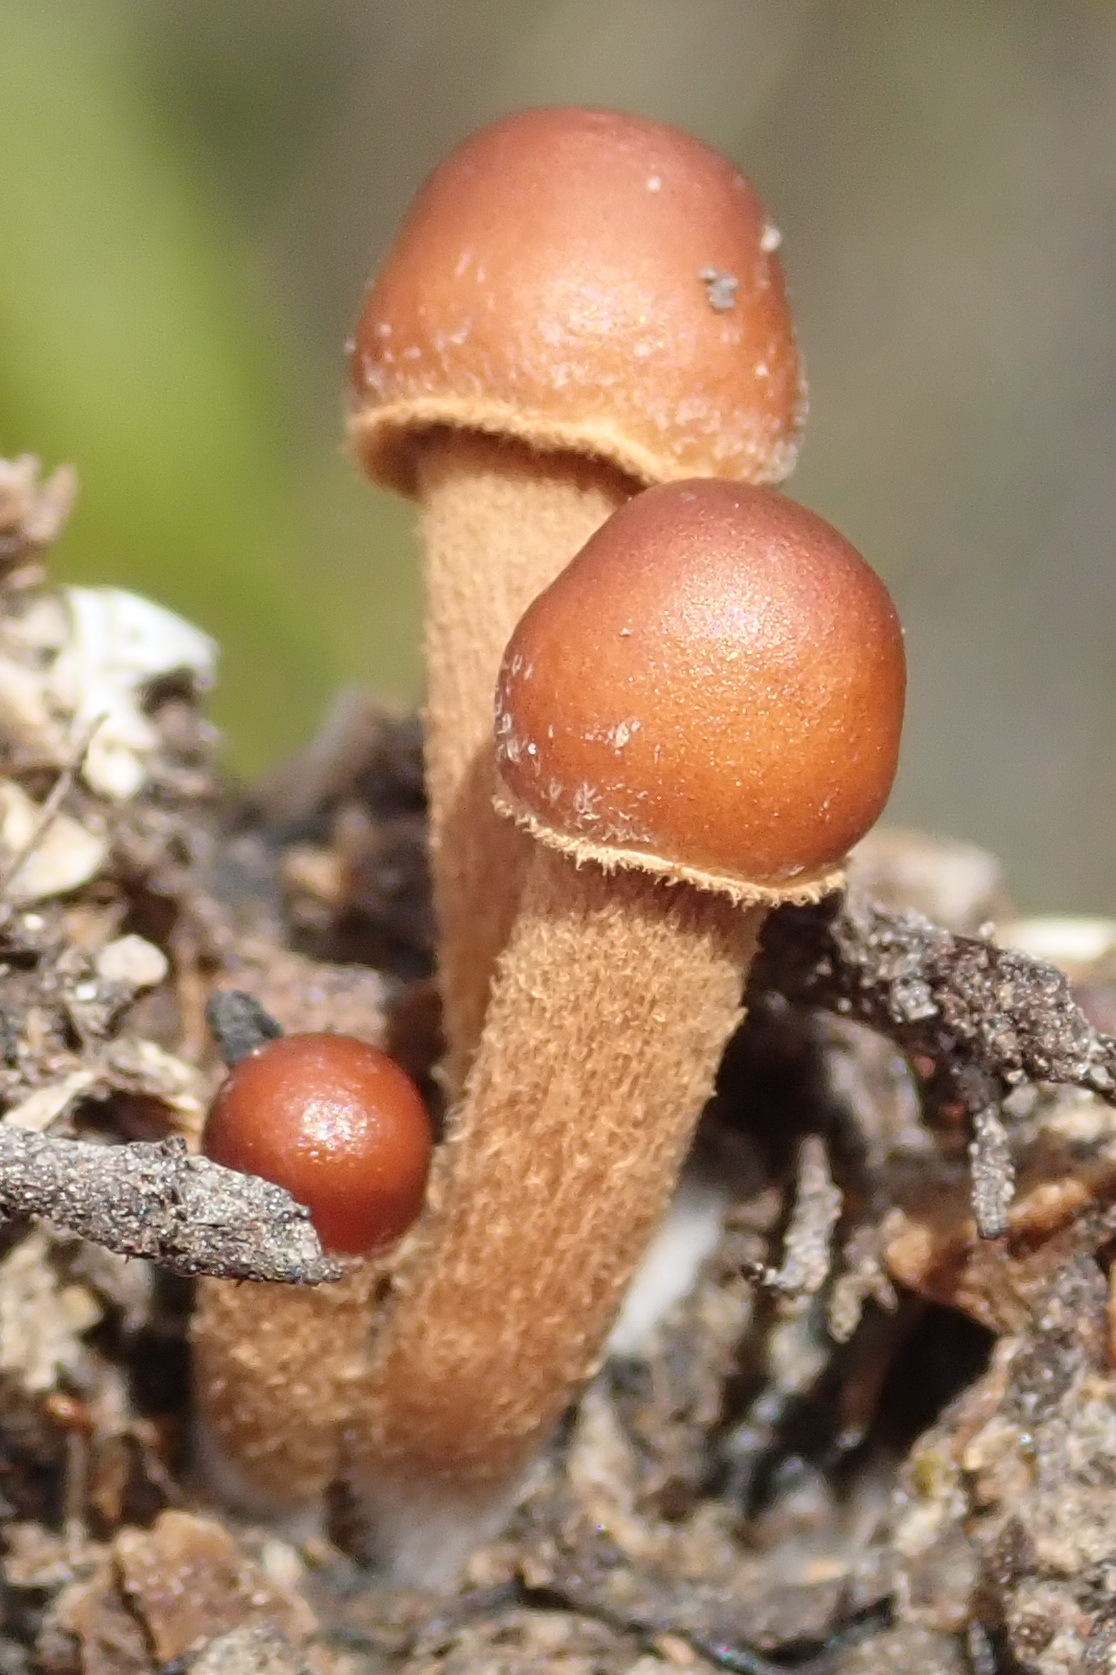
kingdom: Fungi
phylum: Basidiomycota
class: Agaricomycetes
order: Agaricales
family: Strophariaceae
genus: Deconica
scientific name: Deconica coprophila
